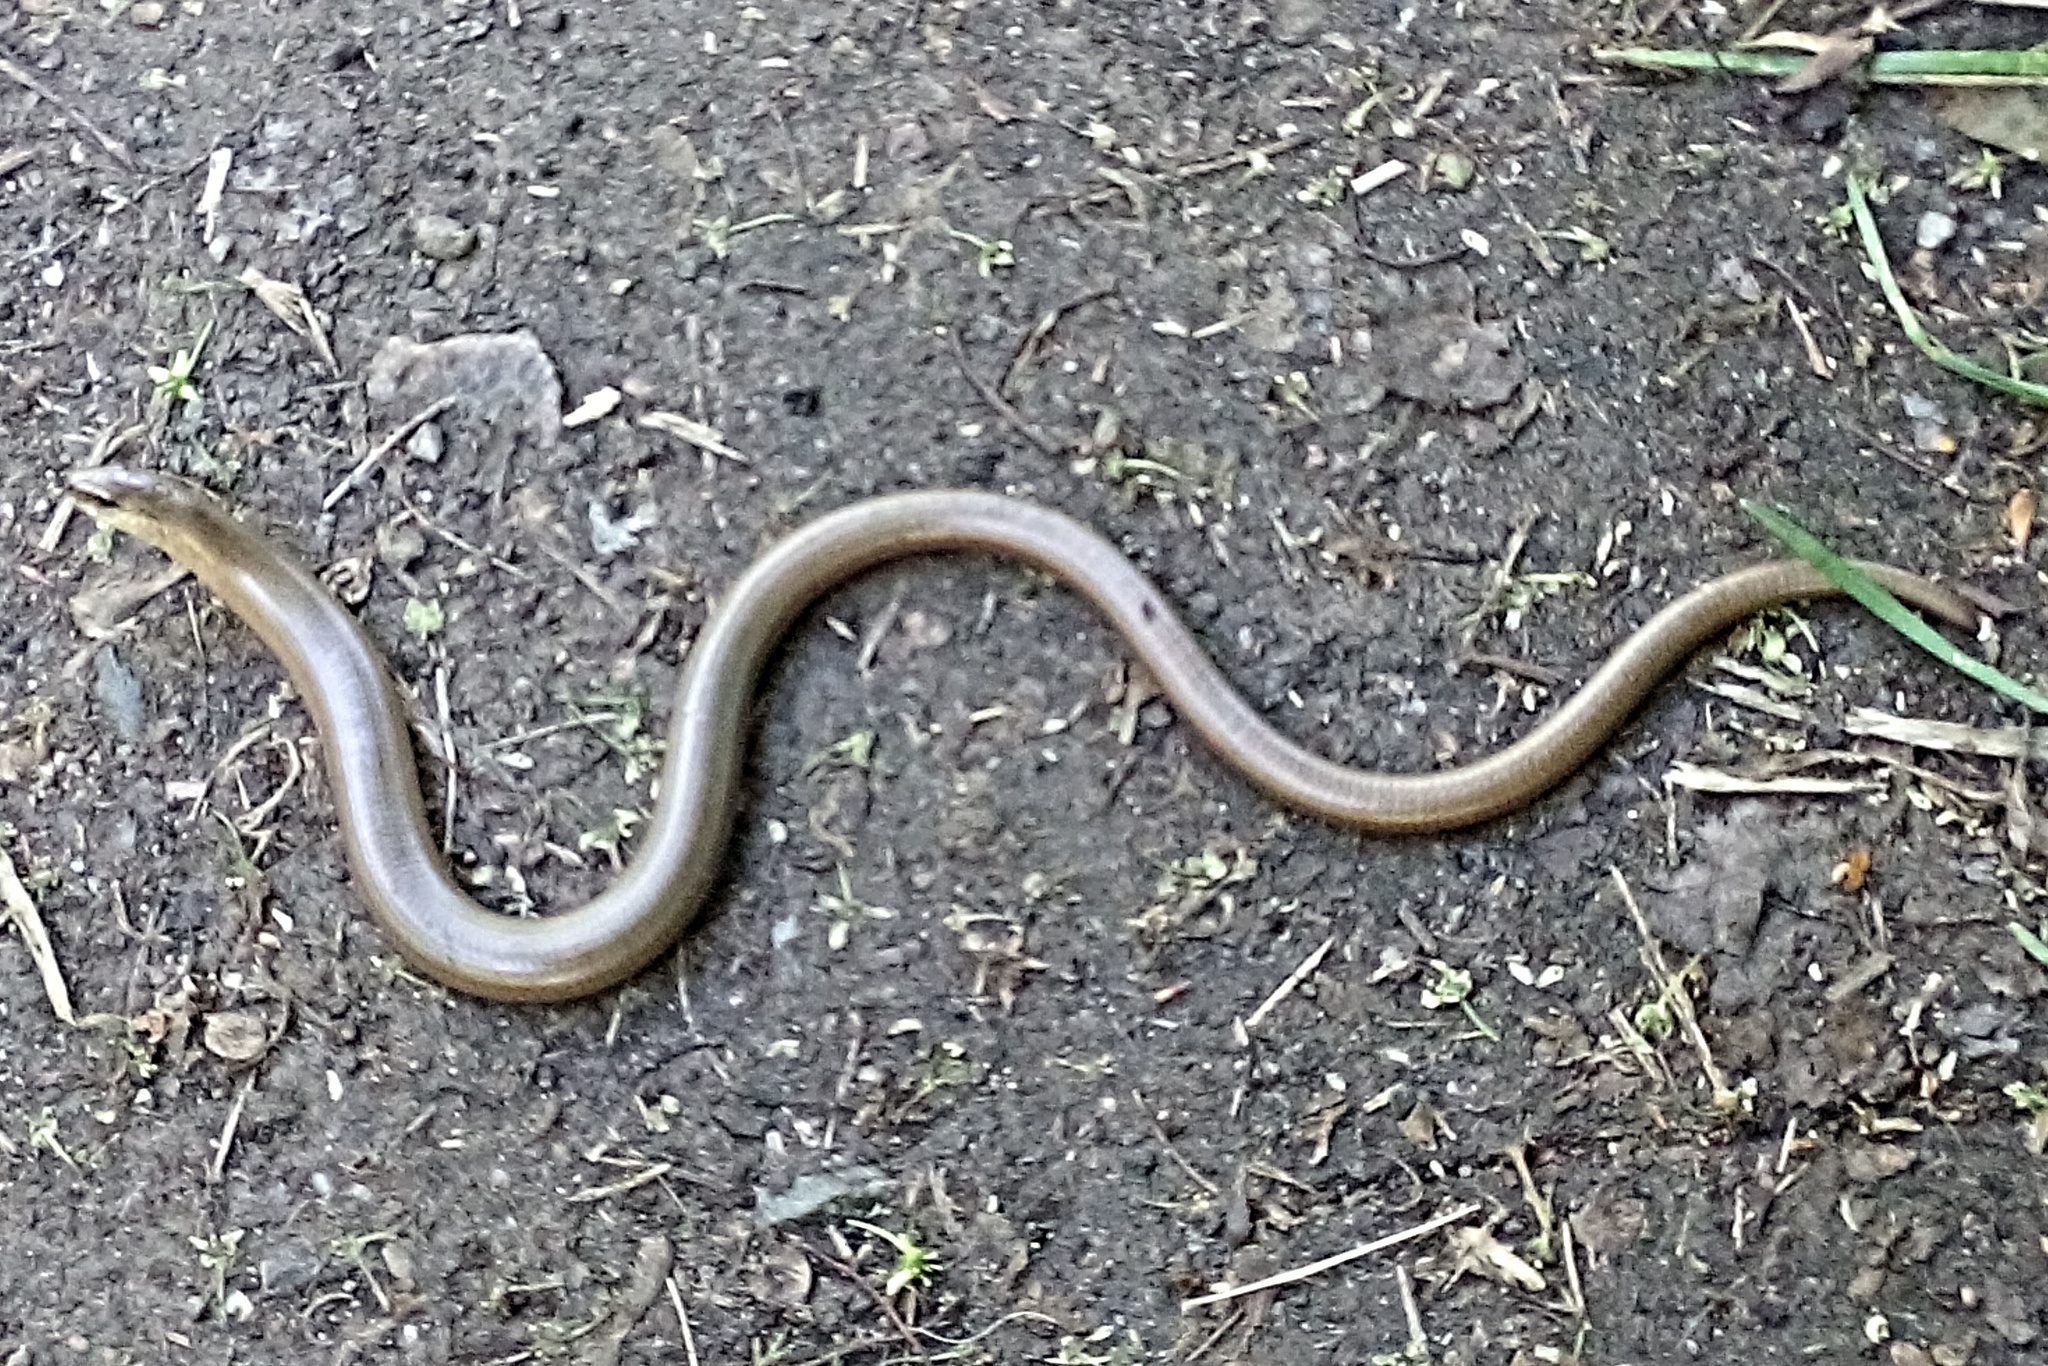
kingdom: Animalia
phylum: Chordata
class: Squamata
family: Anguidae
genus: Anguis
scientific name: Anguis fragilis
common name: Slow worm
